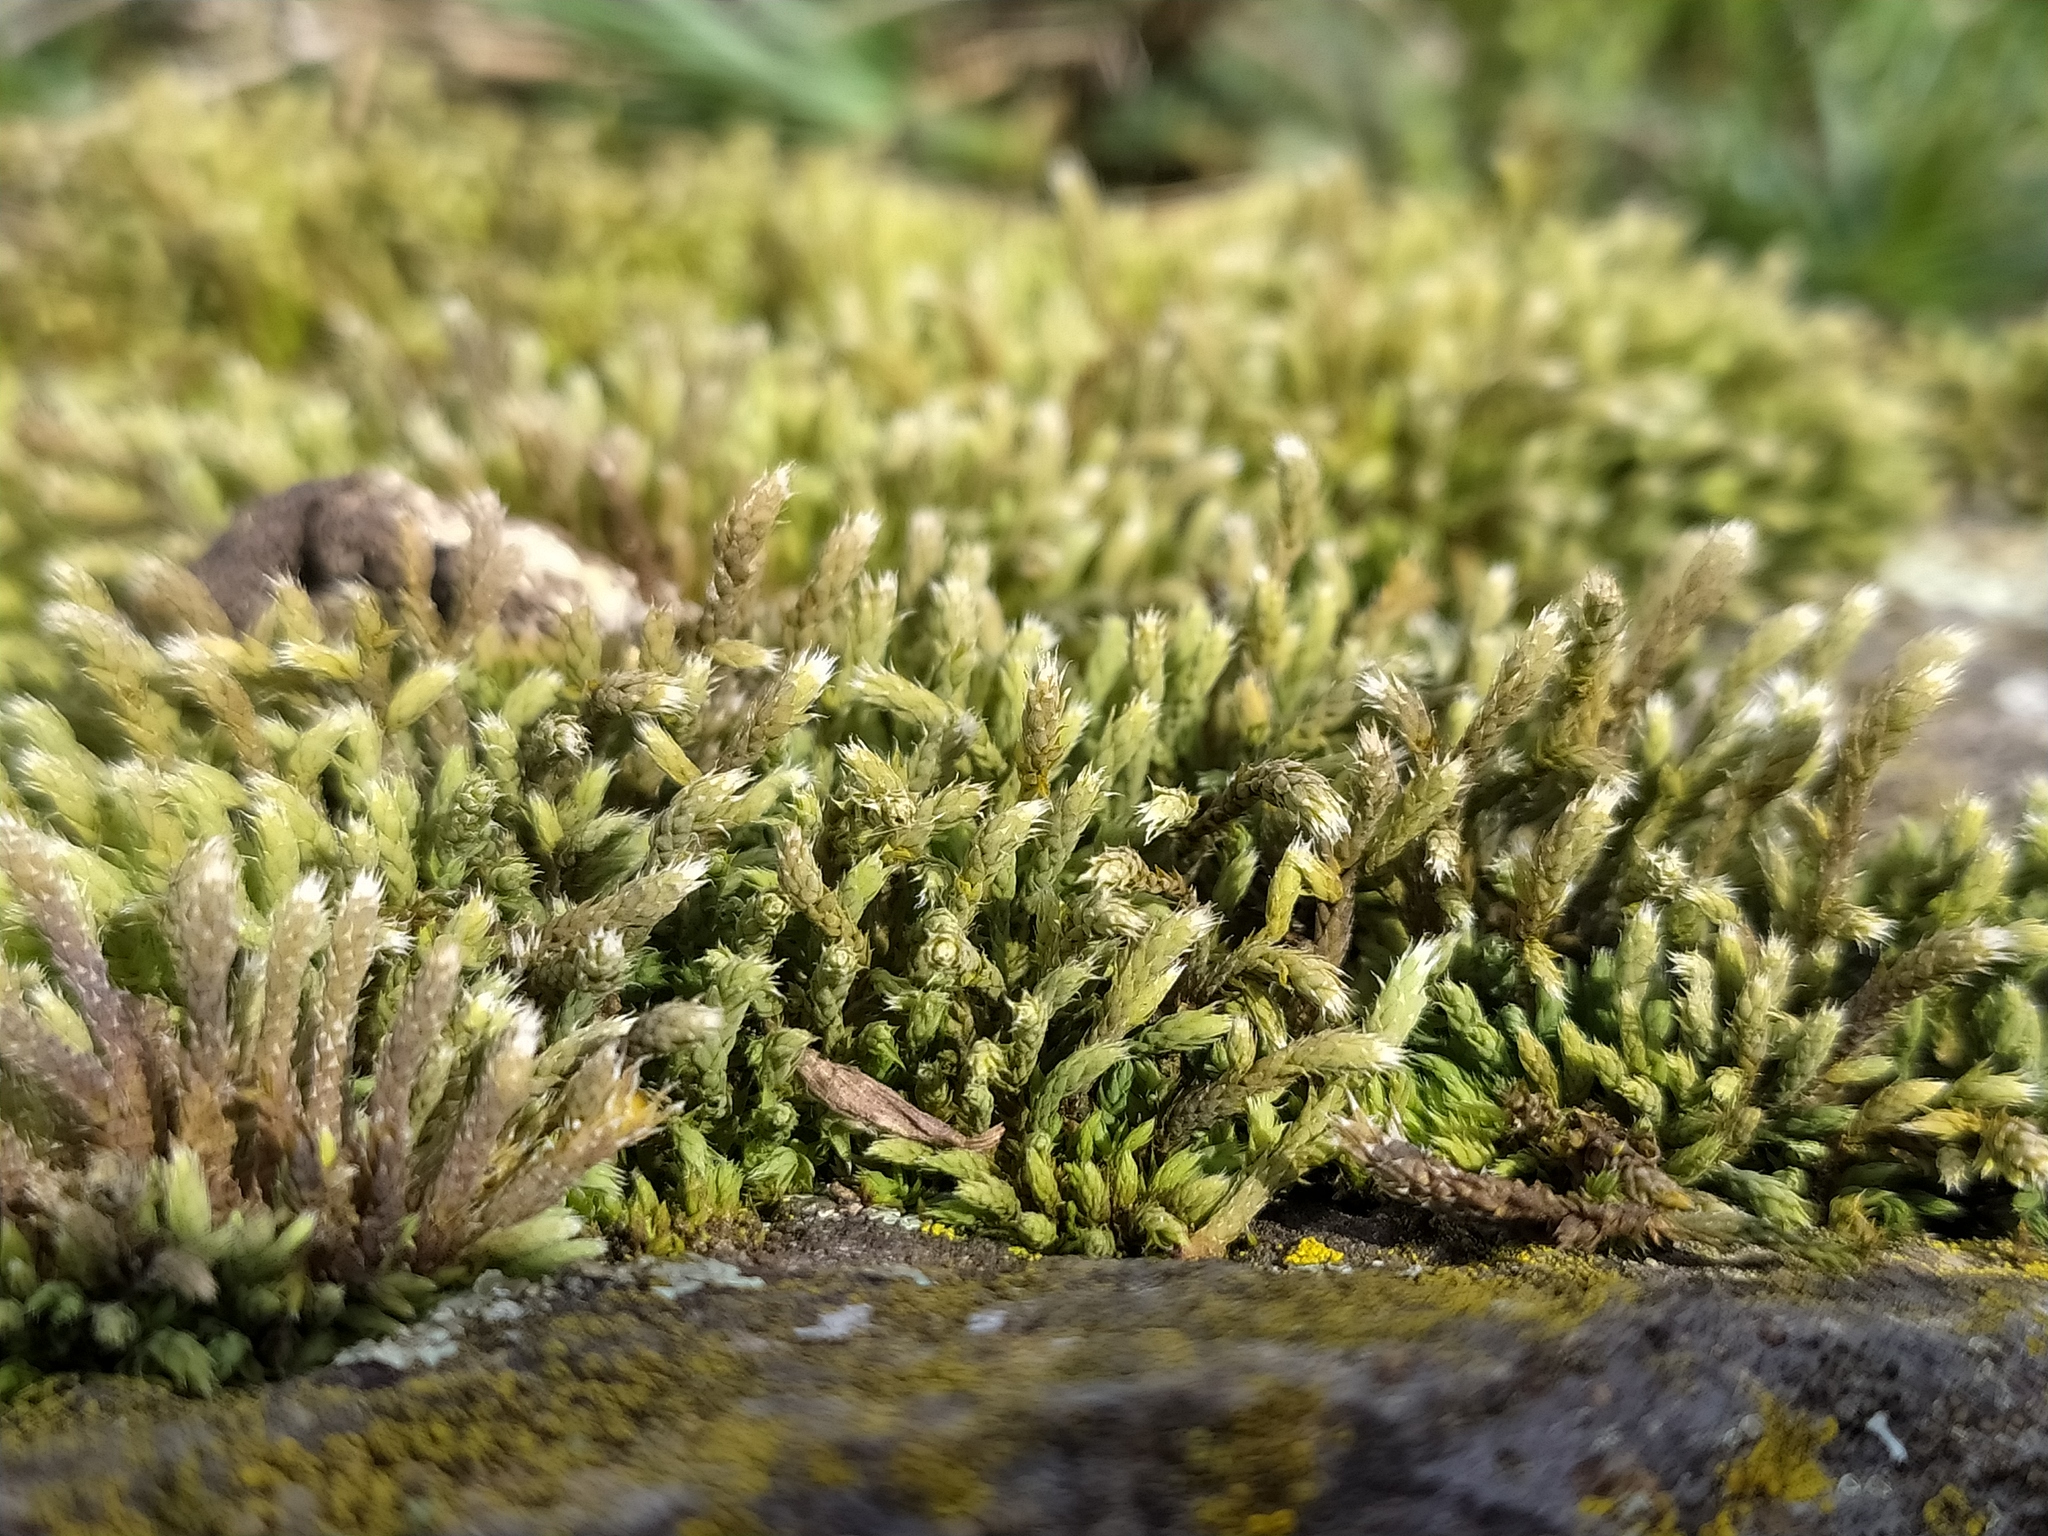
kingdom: Plantae
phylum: Bryophyta
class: Bryopsida
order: Hedwigiales
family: Hedwigiaceae
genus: Hedwigia
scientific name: Hedwigia ciliata
